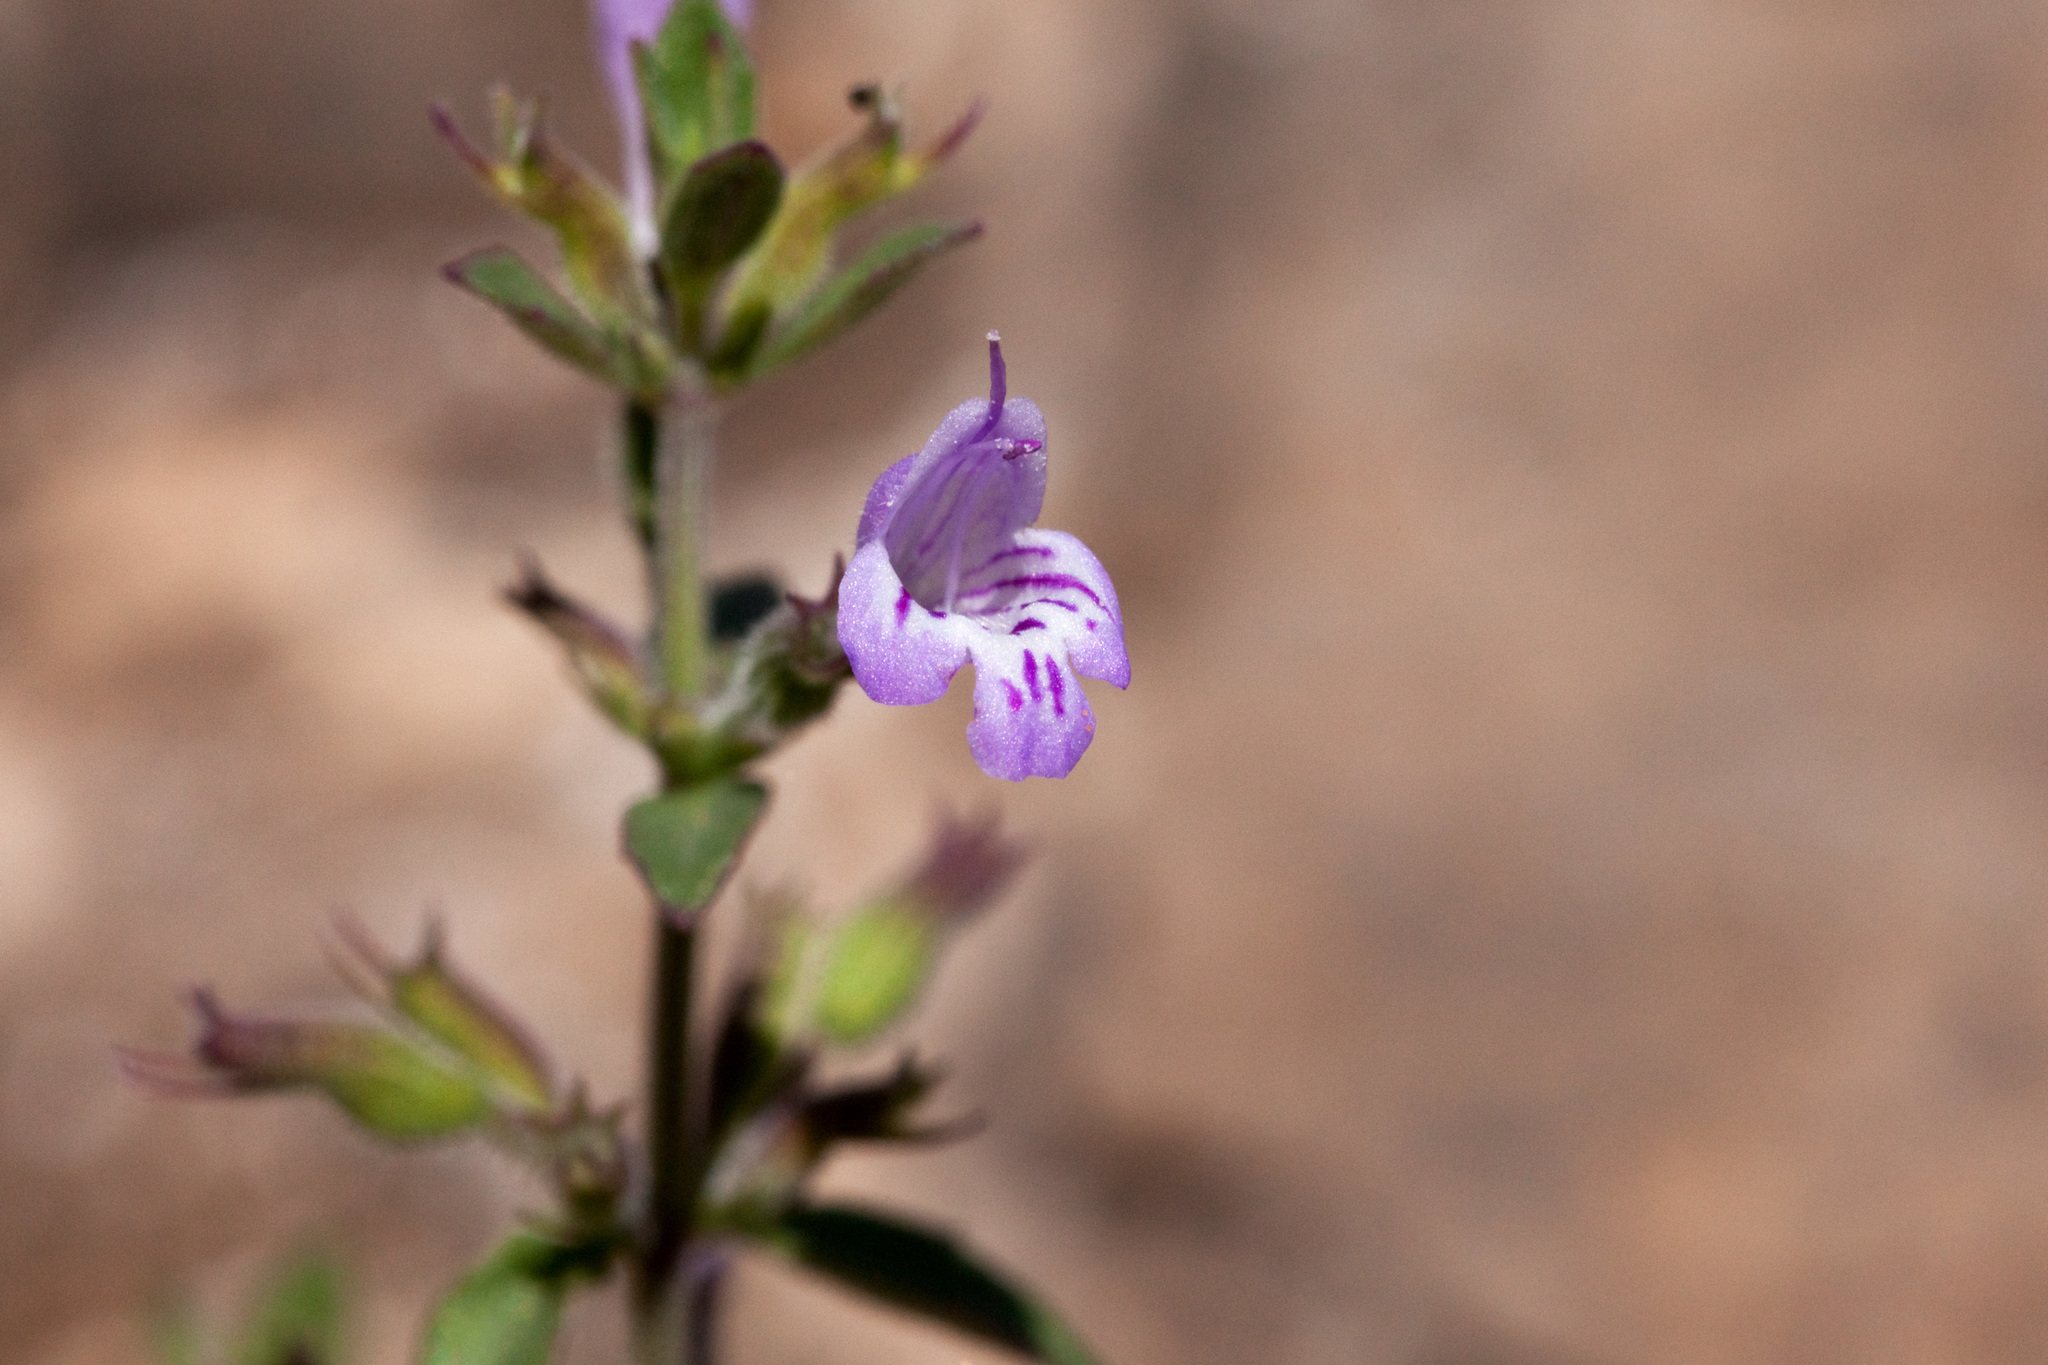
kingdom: Plantae
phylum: Tracheophyta
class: Magnoliopsida
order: Lamiales
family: Lamiaceae
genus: Hedeoma
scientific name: Hedeoma nana
